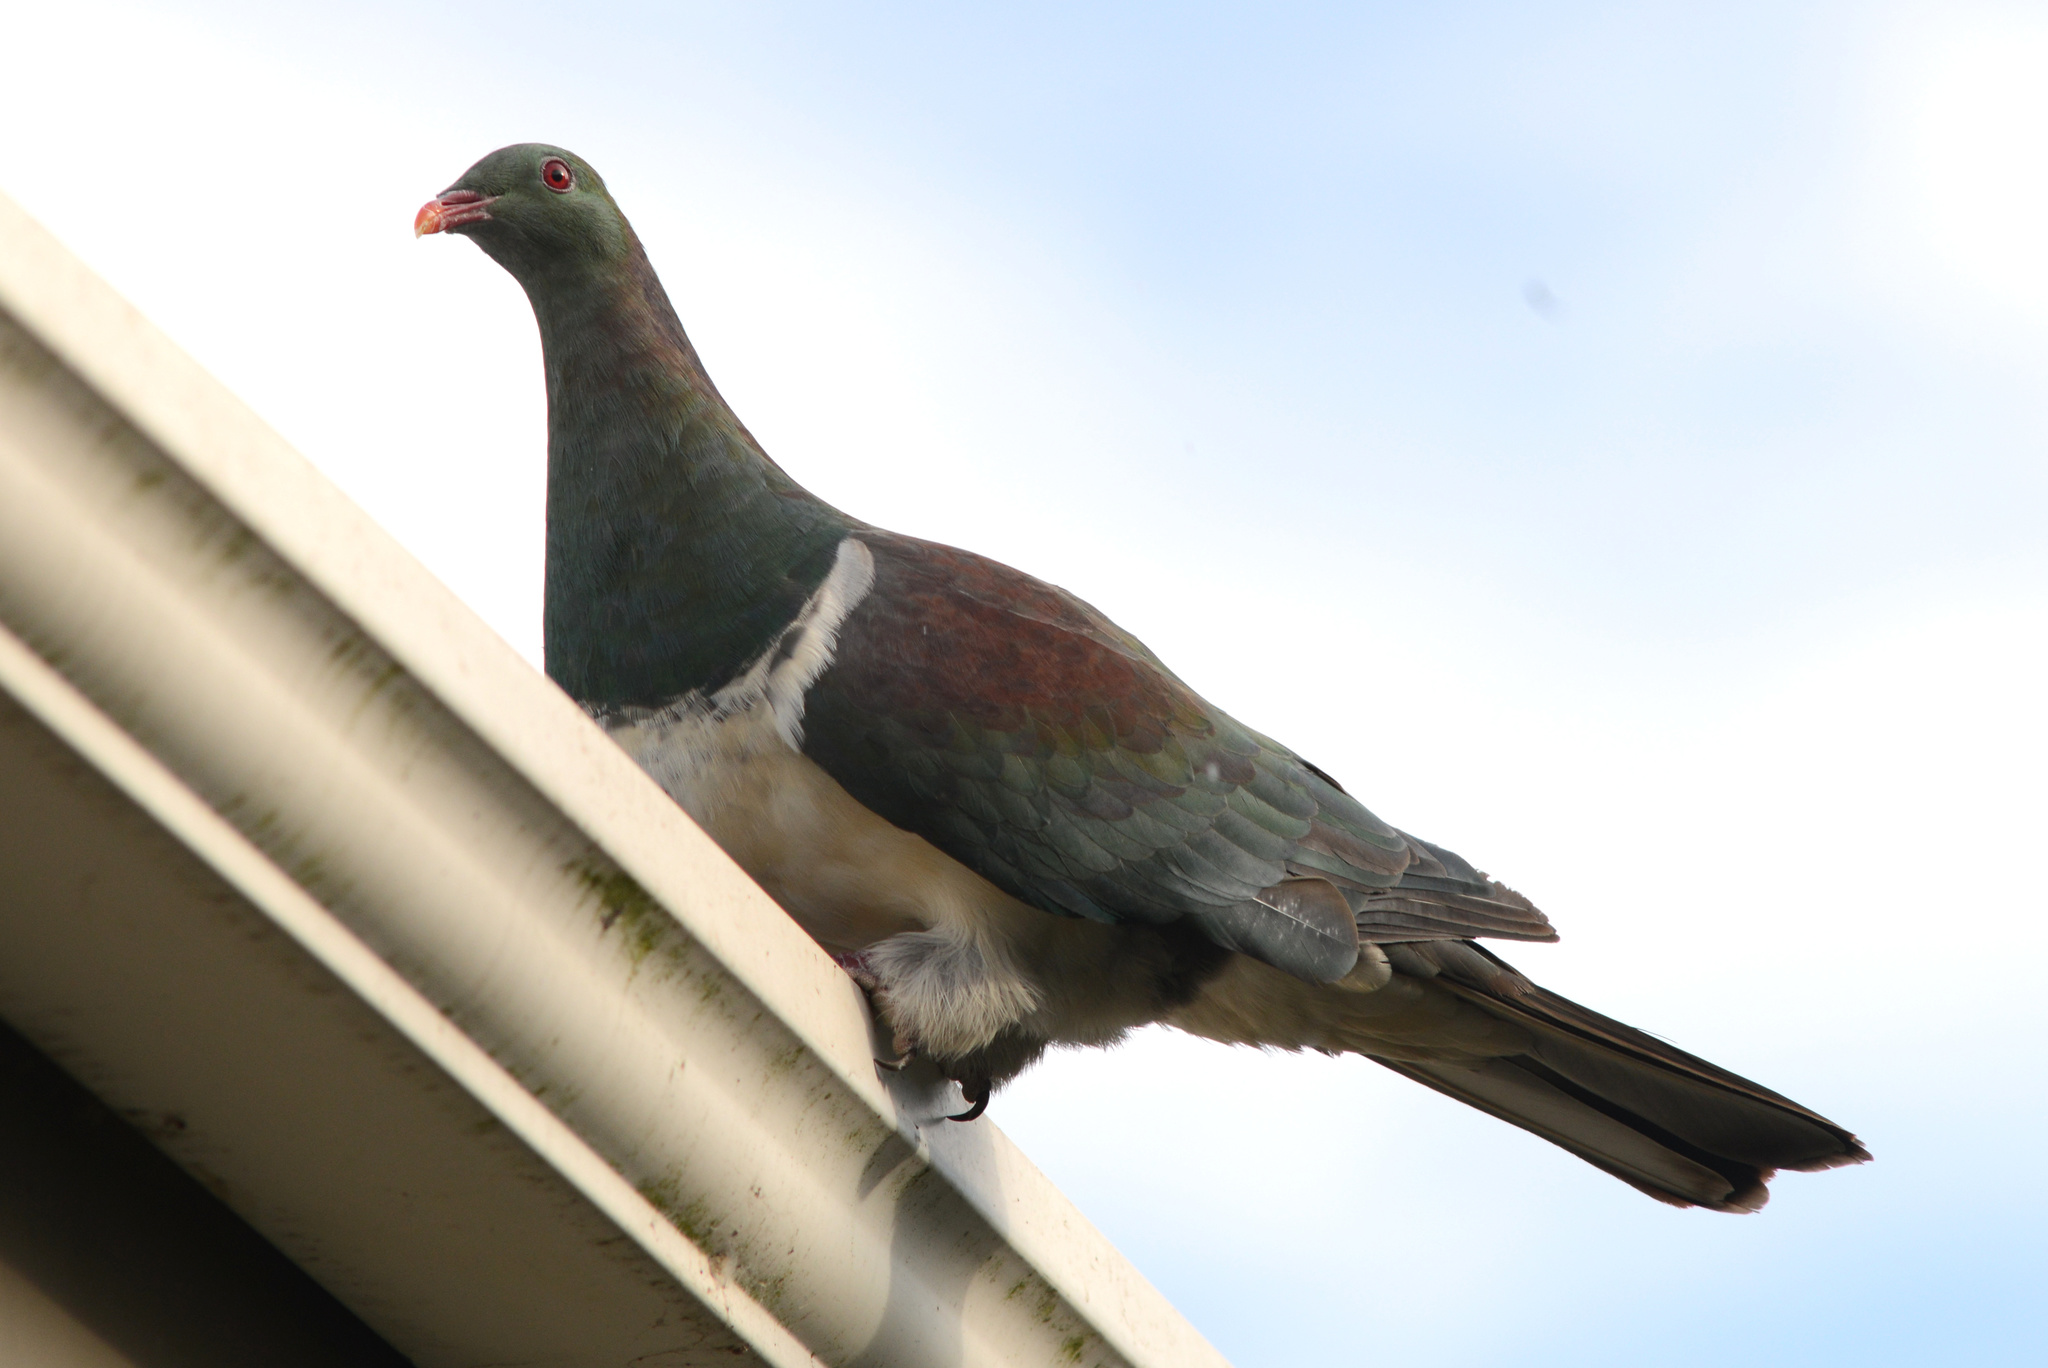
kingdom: Animalia
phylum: Chordata
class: Aves
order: Columbiformes
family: Columbidae
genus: Hemiphaga
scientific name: Hemiphaga novaeseelandiae
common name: New zealand pigeon
